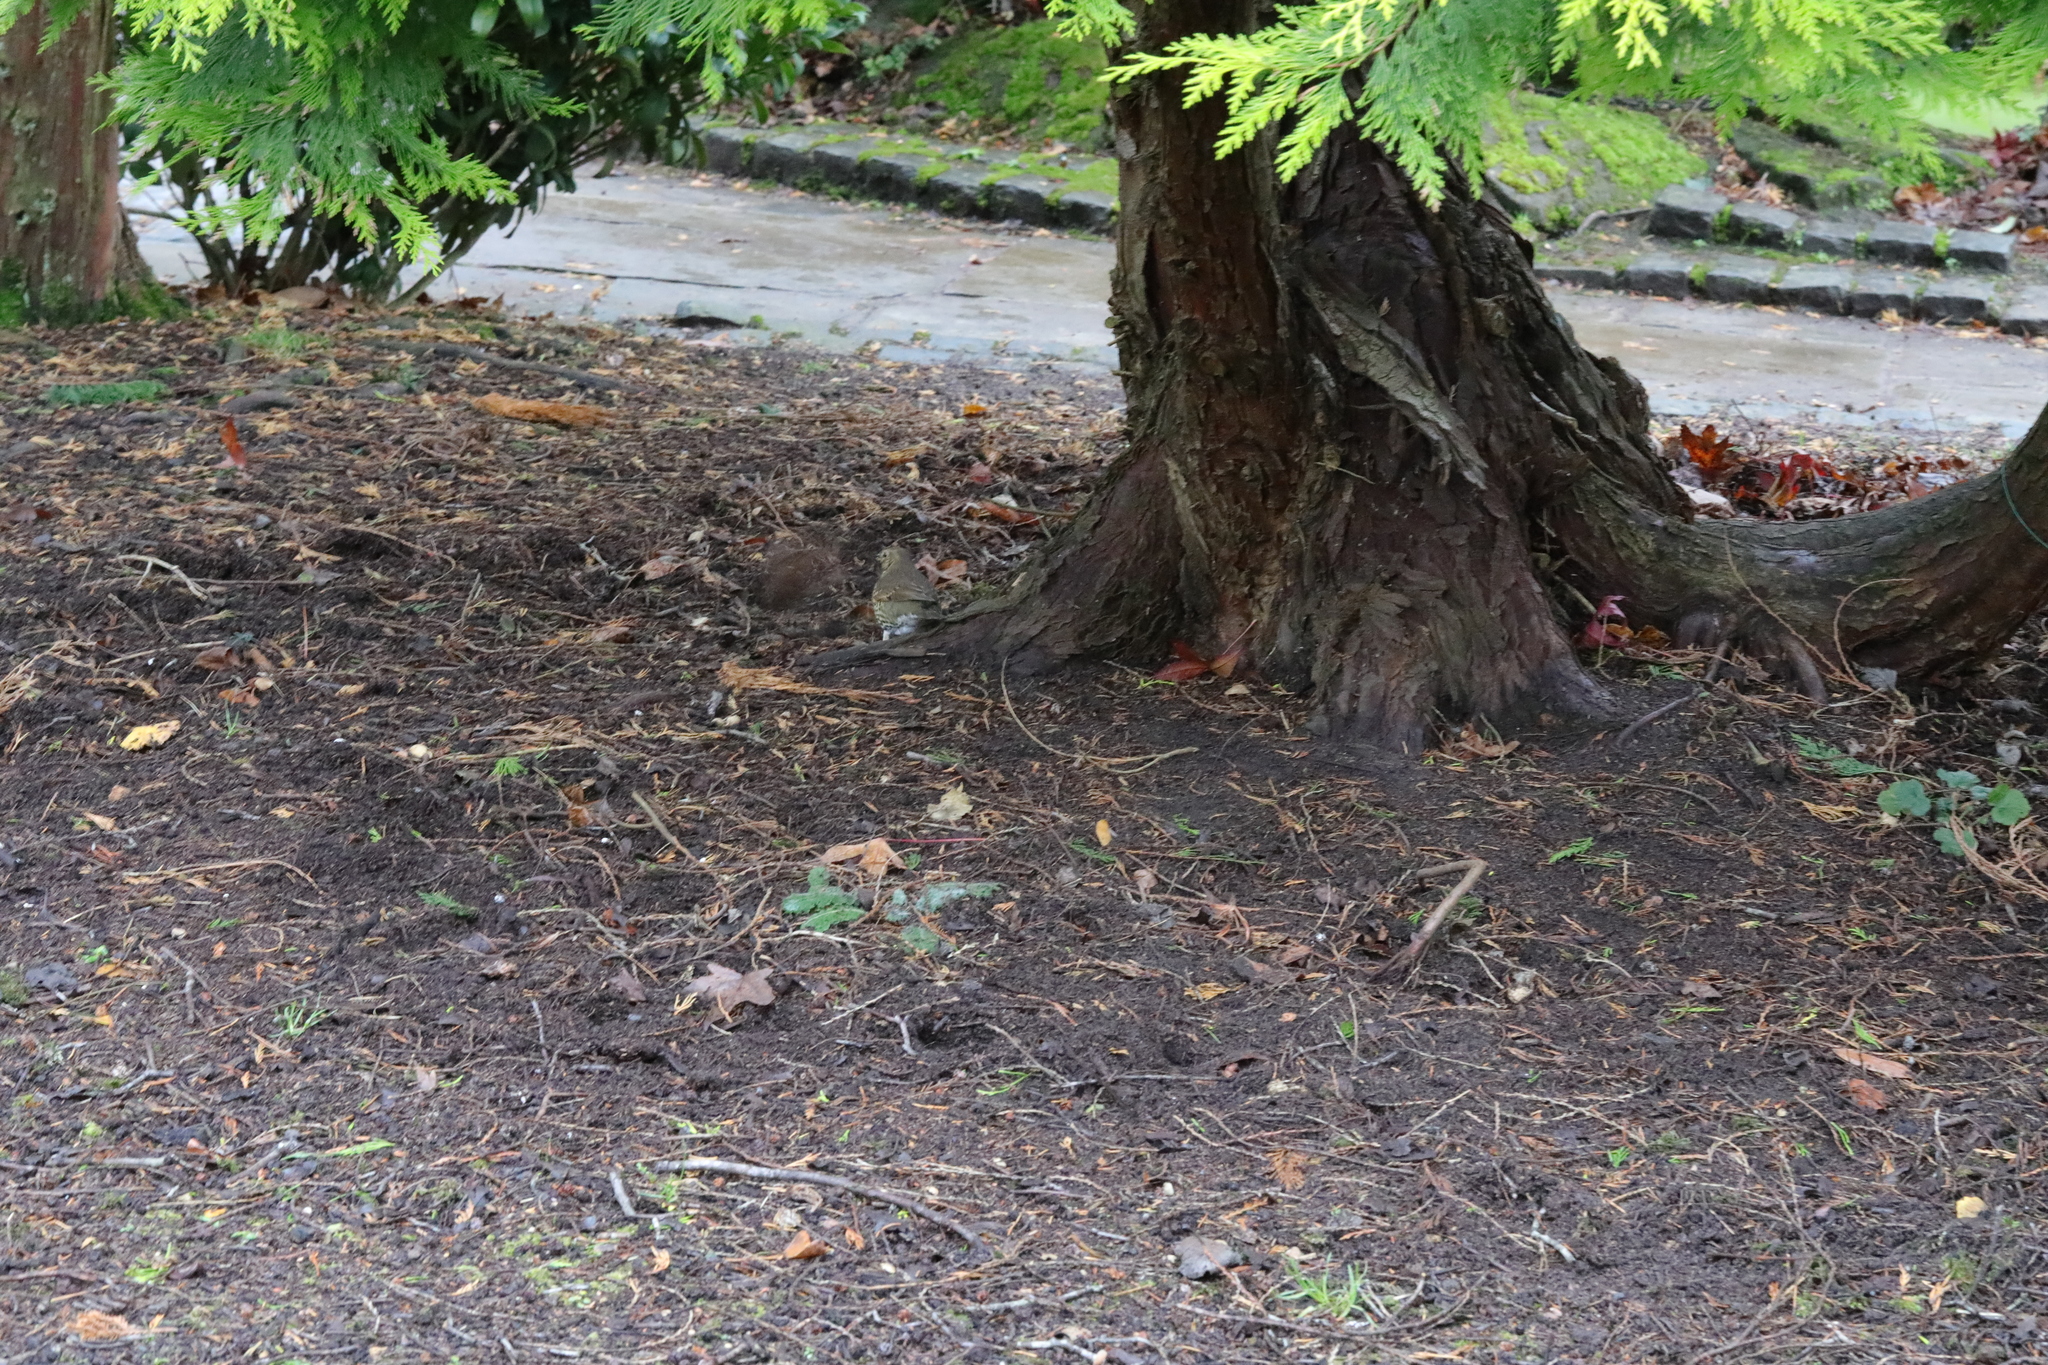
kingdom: Animalia
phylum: Chordata
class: Aves
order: Passeriformes
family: Turdidae
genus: Turdus
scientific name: Turdus philomelos
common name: Song thrush
